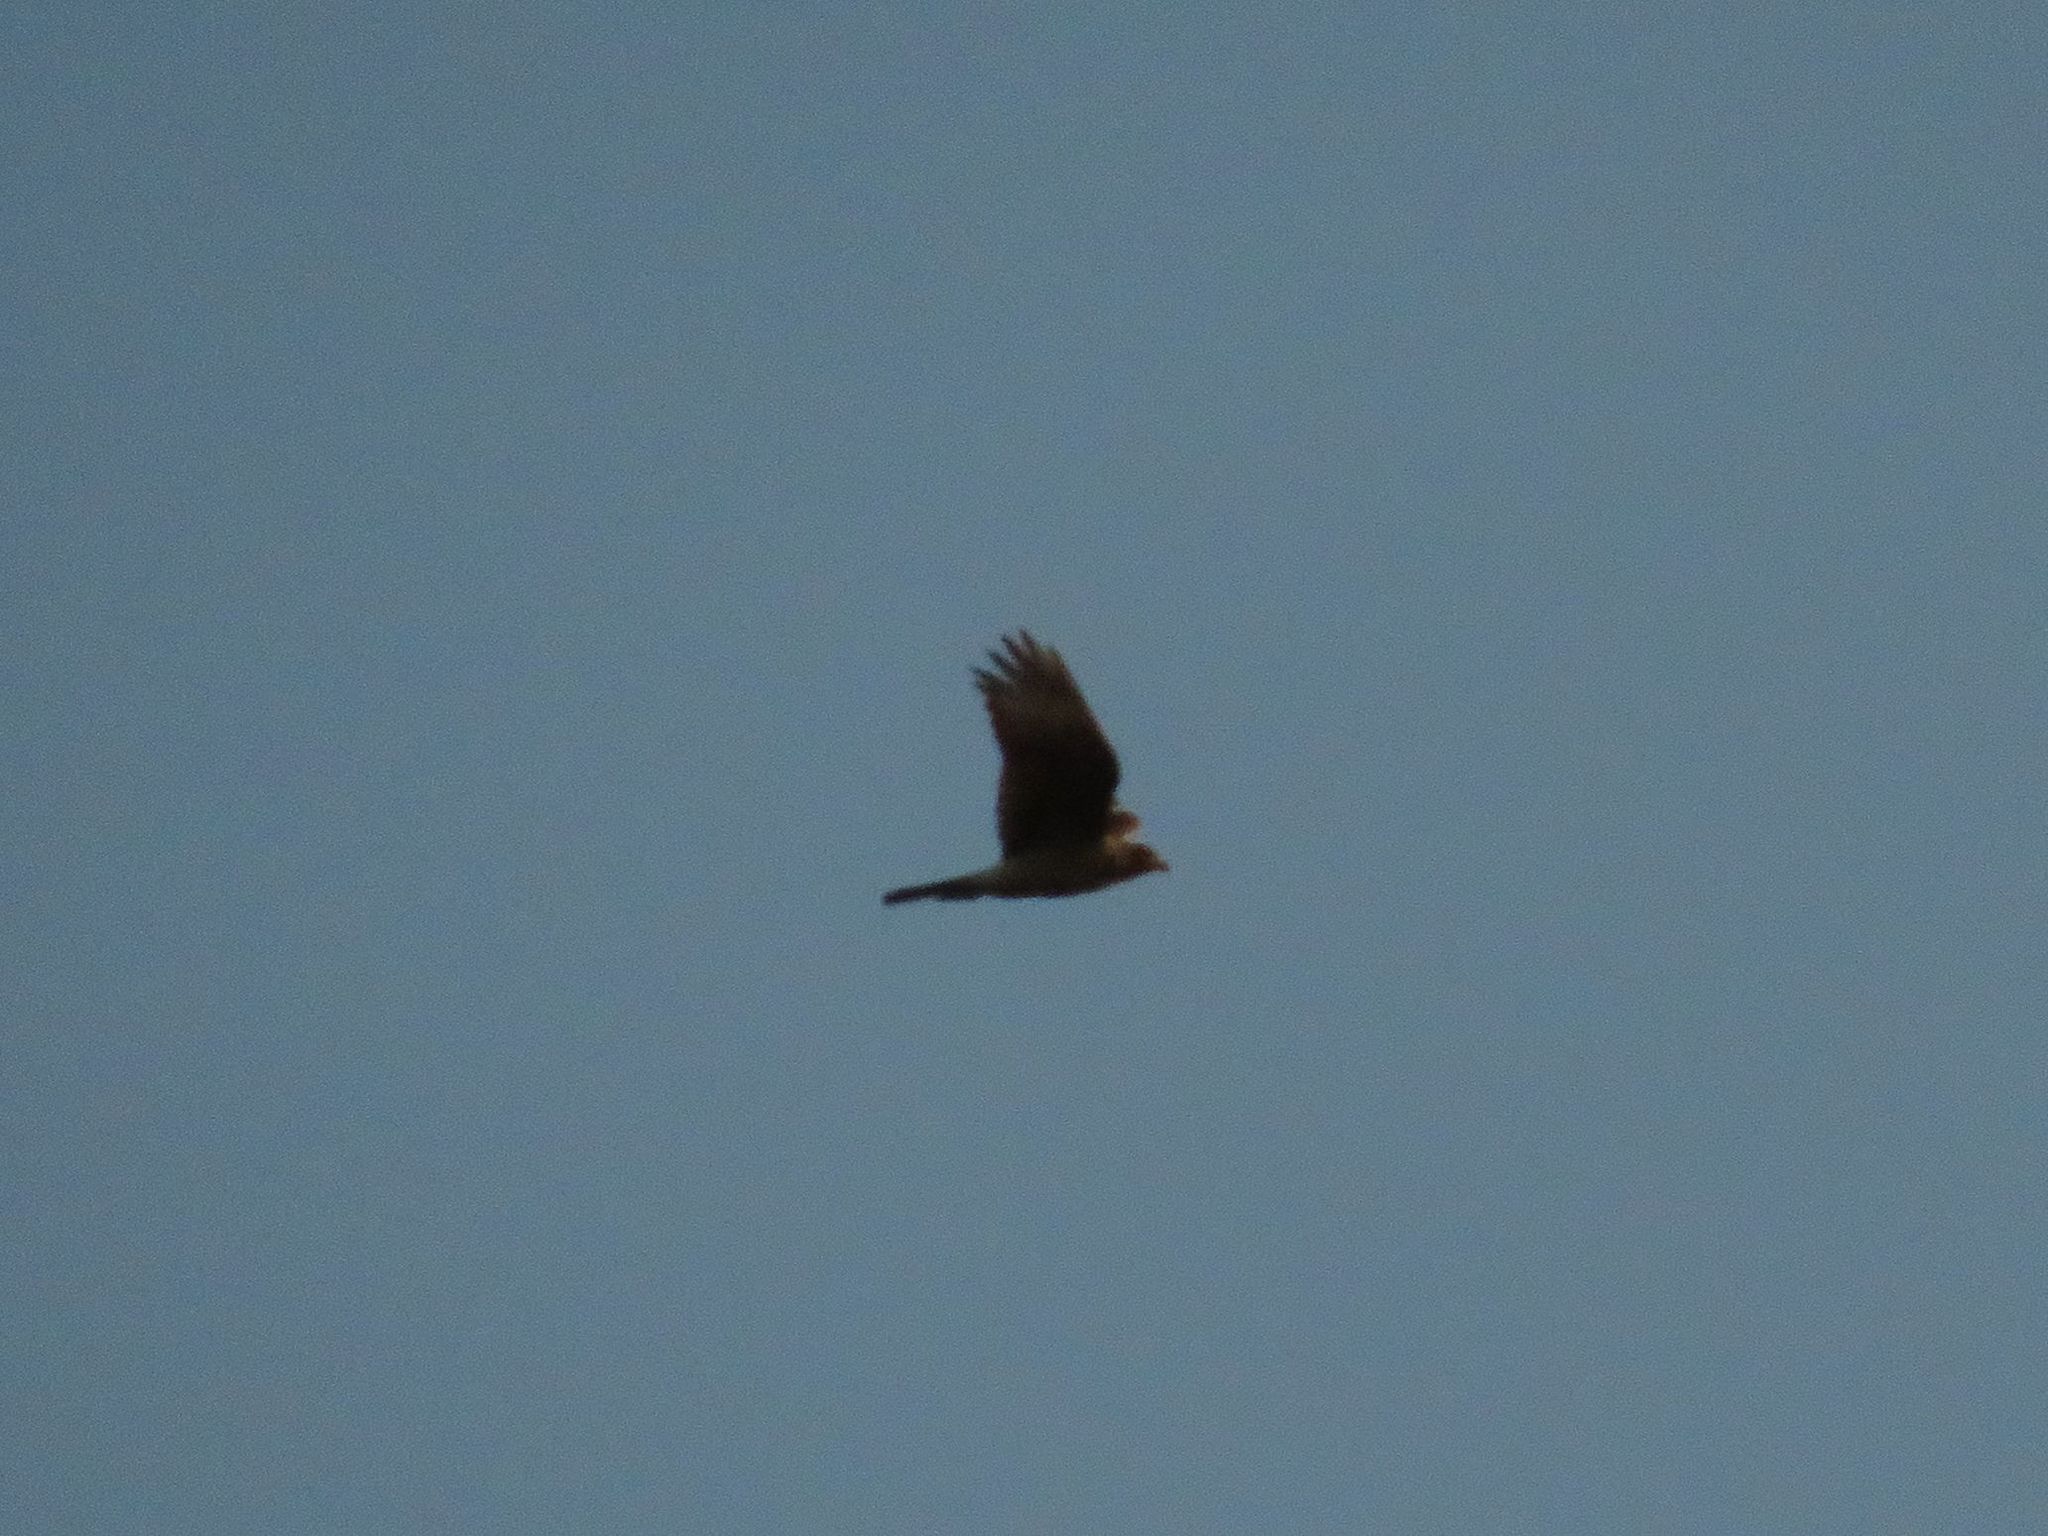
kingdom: Animalia
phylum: Chordata
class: Aves
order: Falconiformes
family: Falconidae
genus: Daptrius
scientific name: Daptrius
